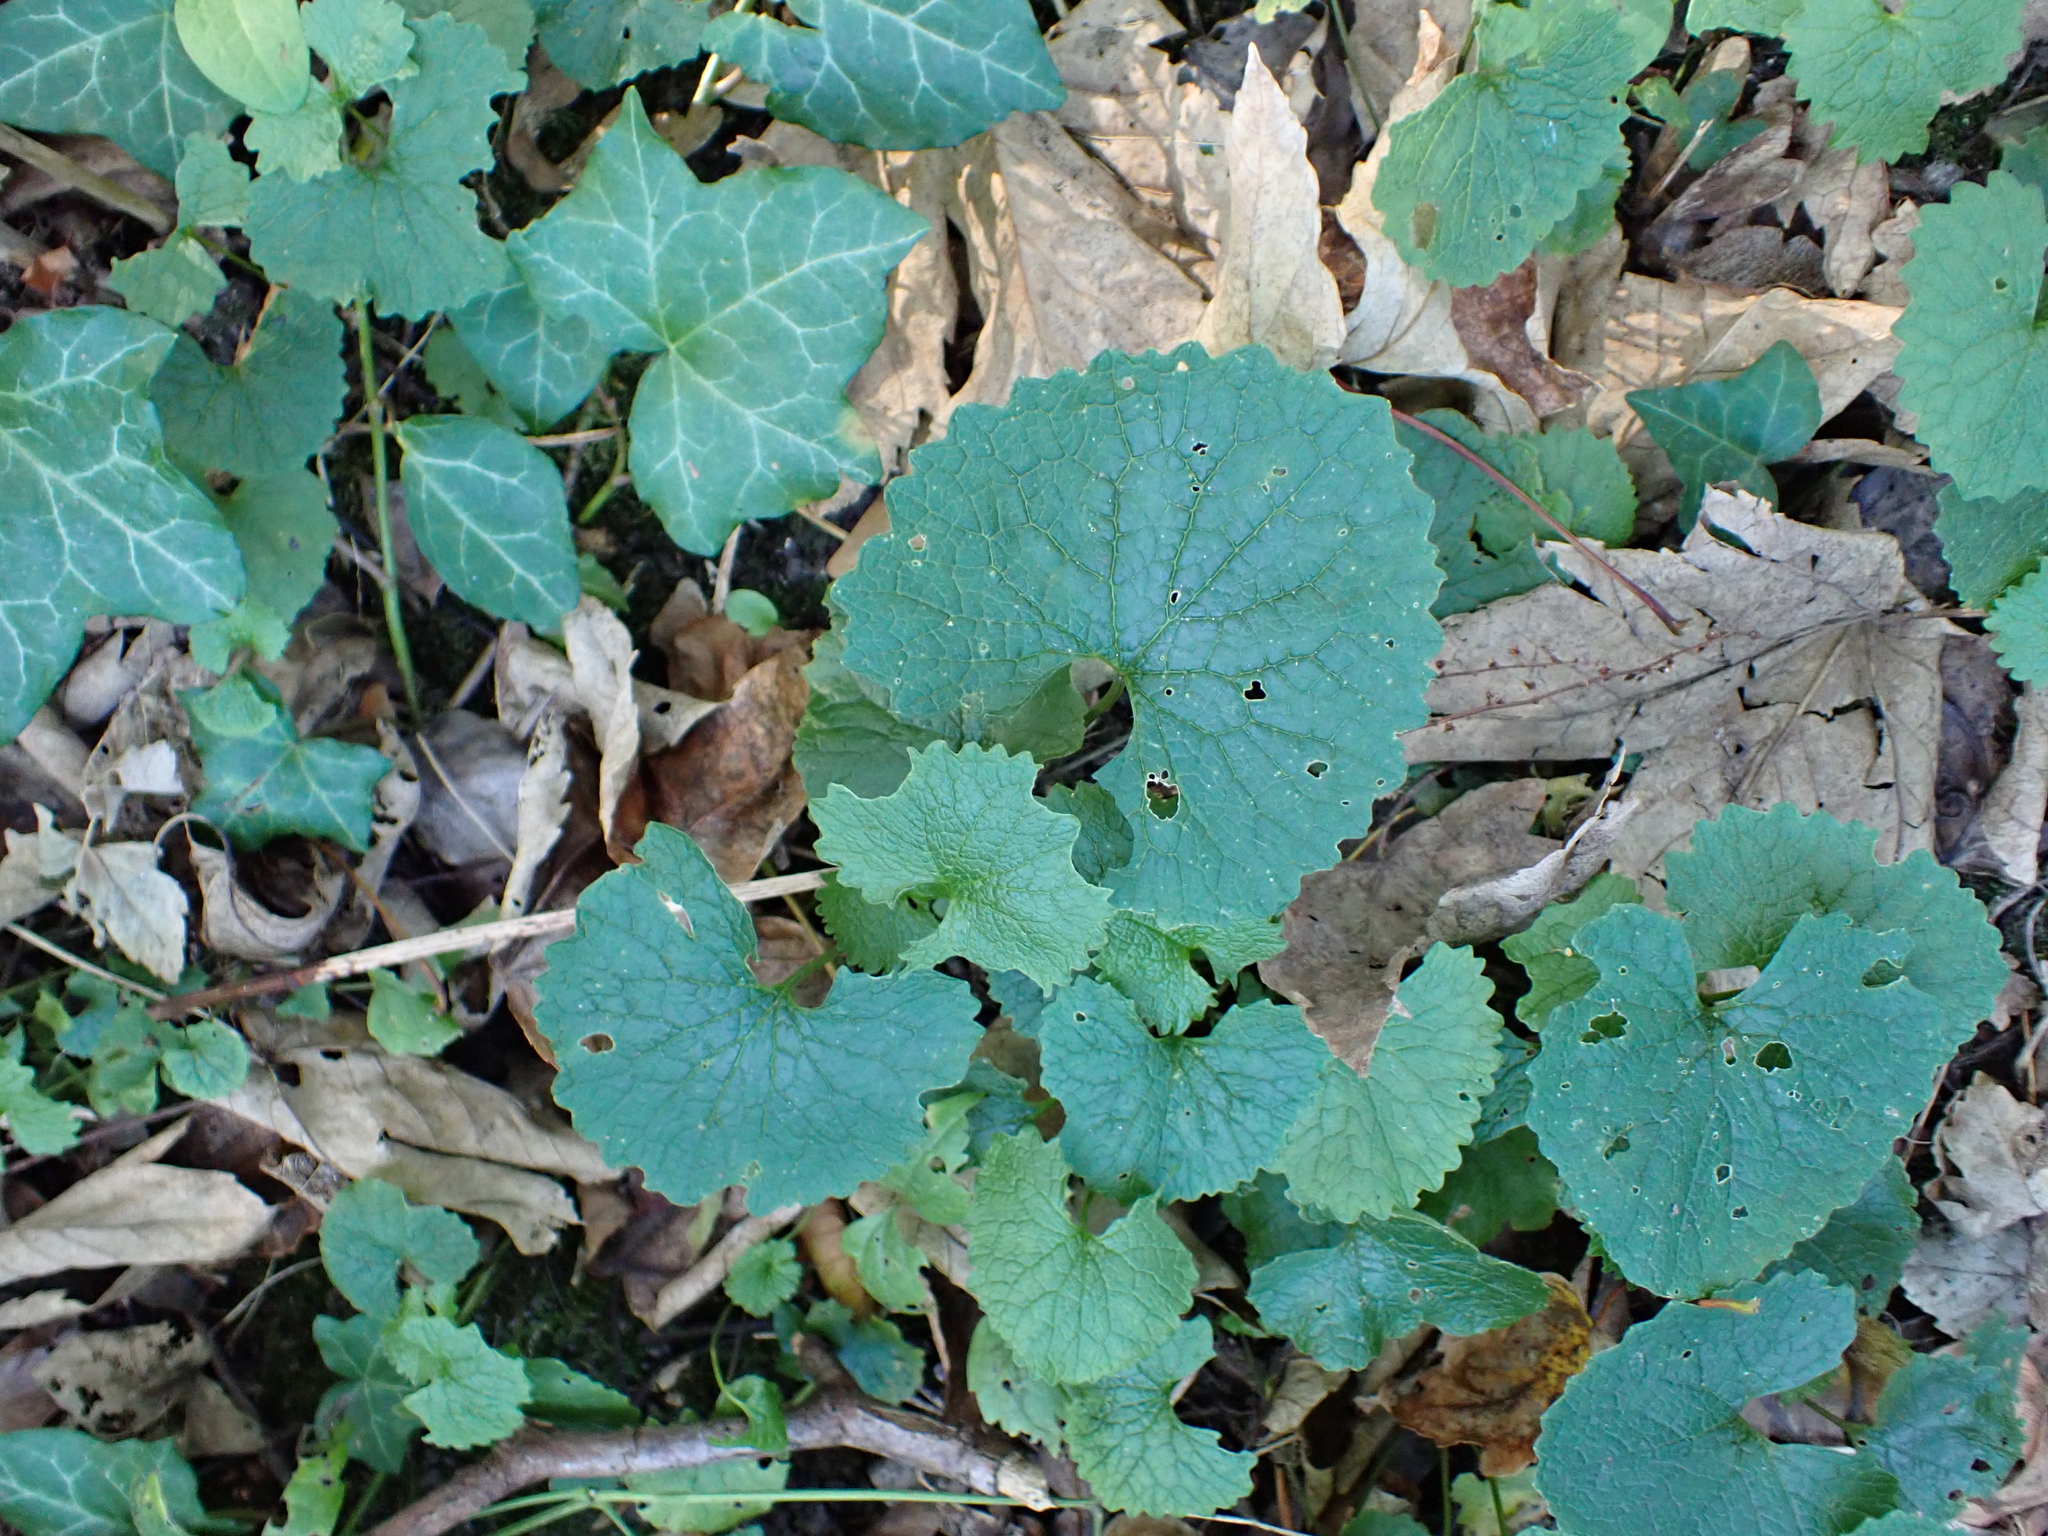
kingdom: Plantae
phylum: Tracheophyta
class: Magnoliopsida
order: Brassicales
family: Brassicaceae
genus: Alliaria
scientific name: Alliaria petiolata
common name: Garlic mustard
